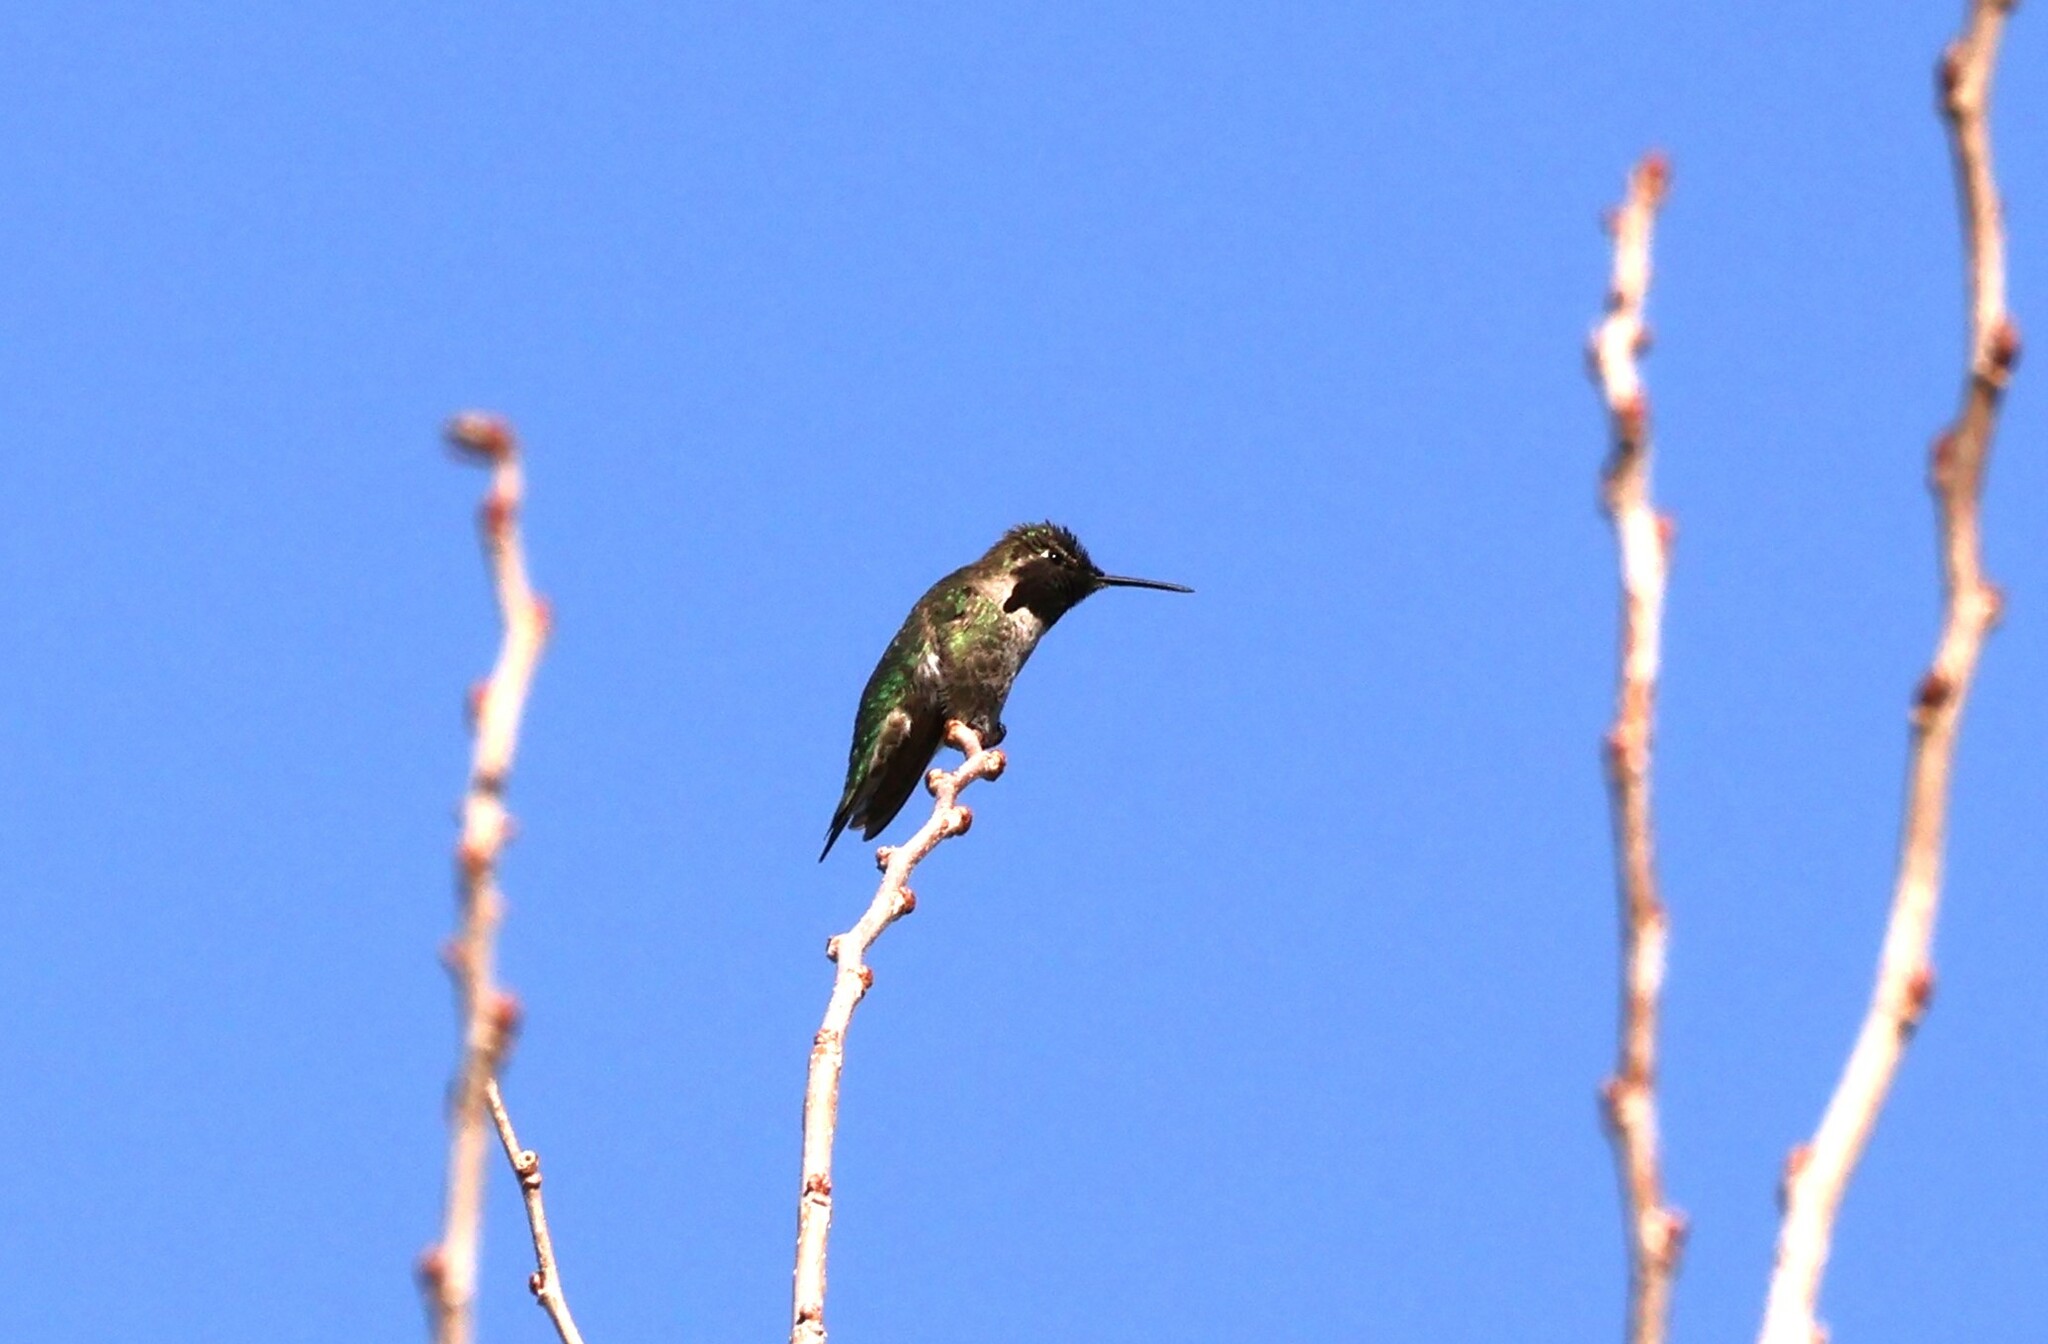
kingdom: Animalia
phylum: Chordata
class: Aves
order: Apodiformes
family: Trochilidae
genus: Calypte
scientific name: Calypte anna
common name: Anna's hummingbird
